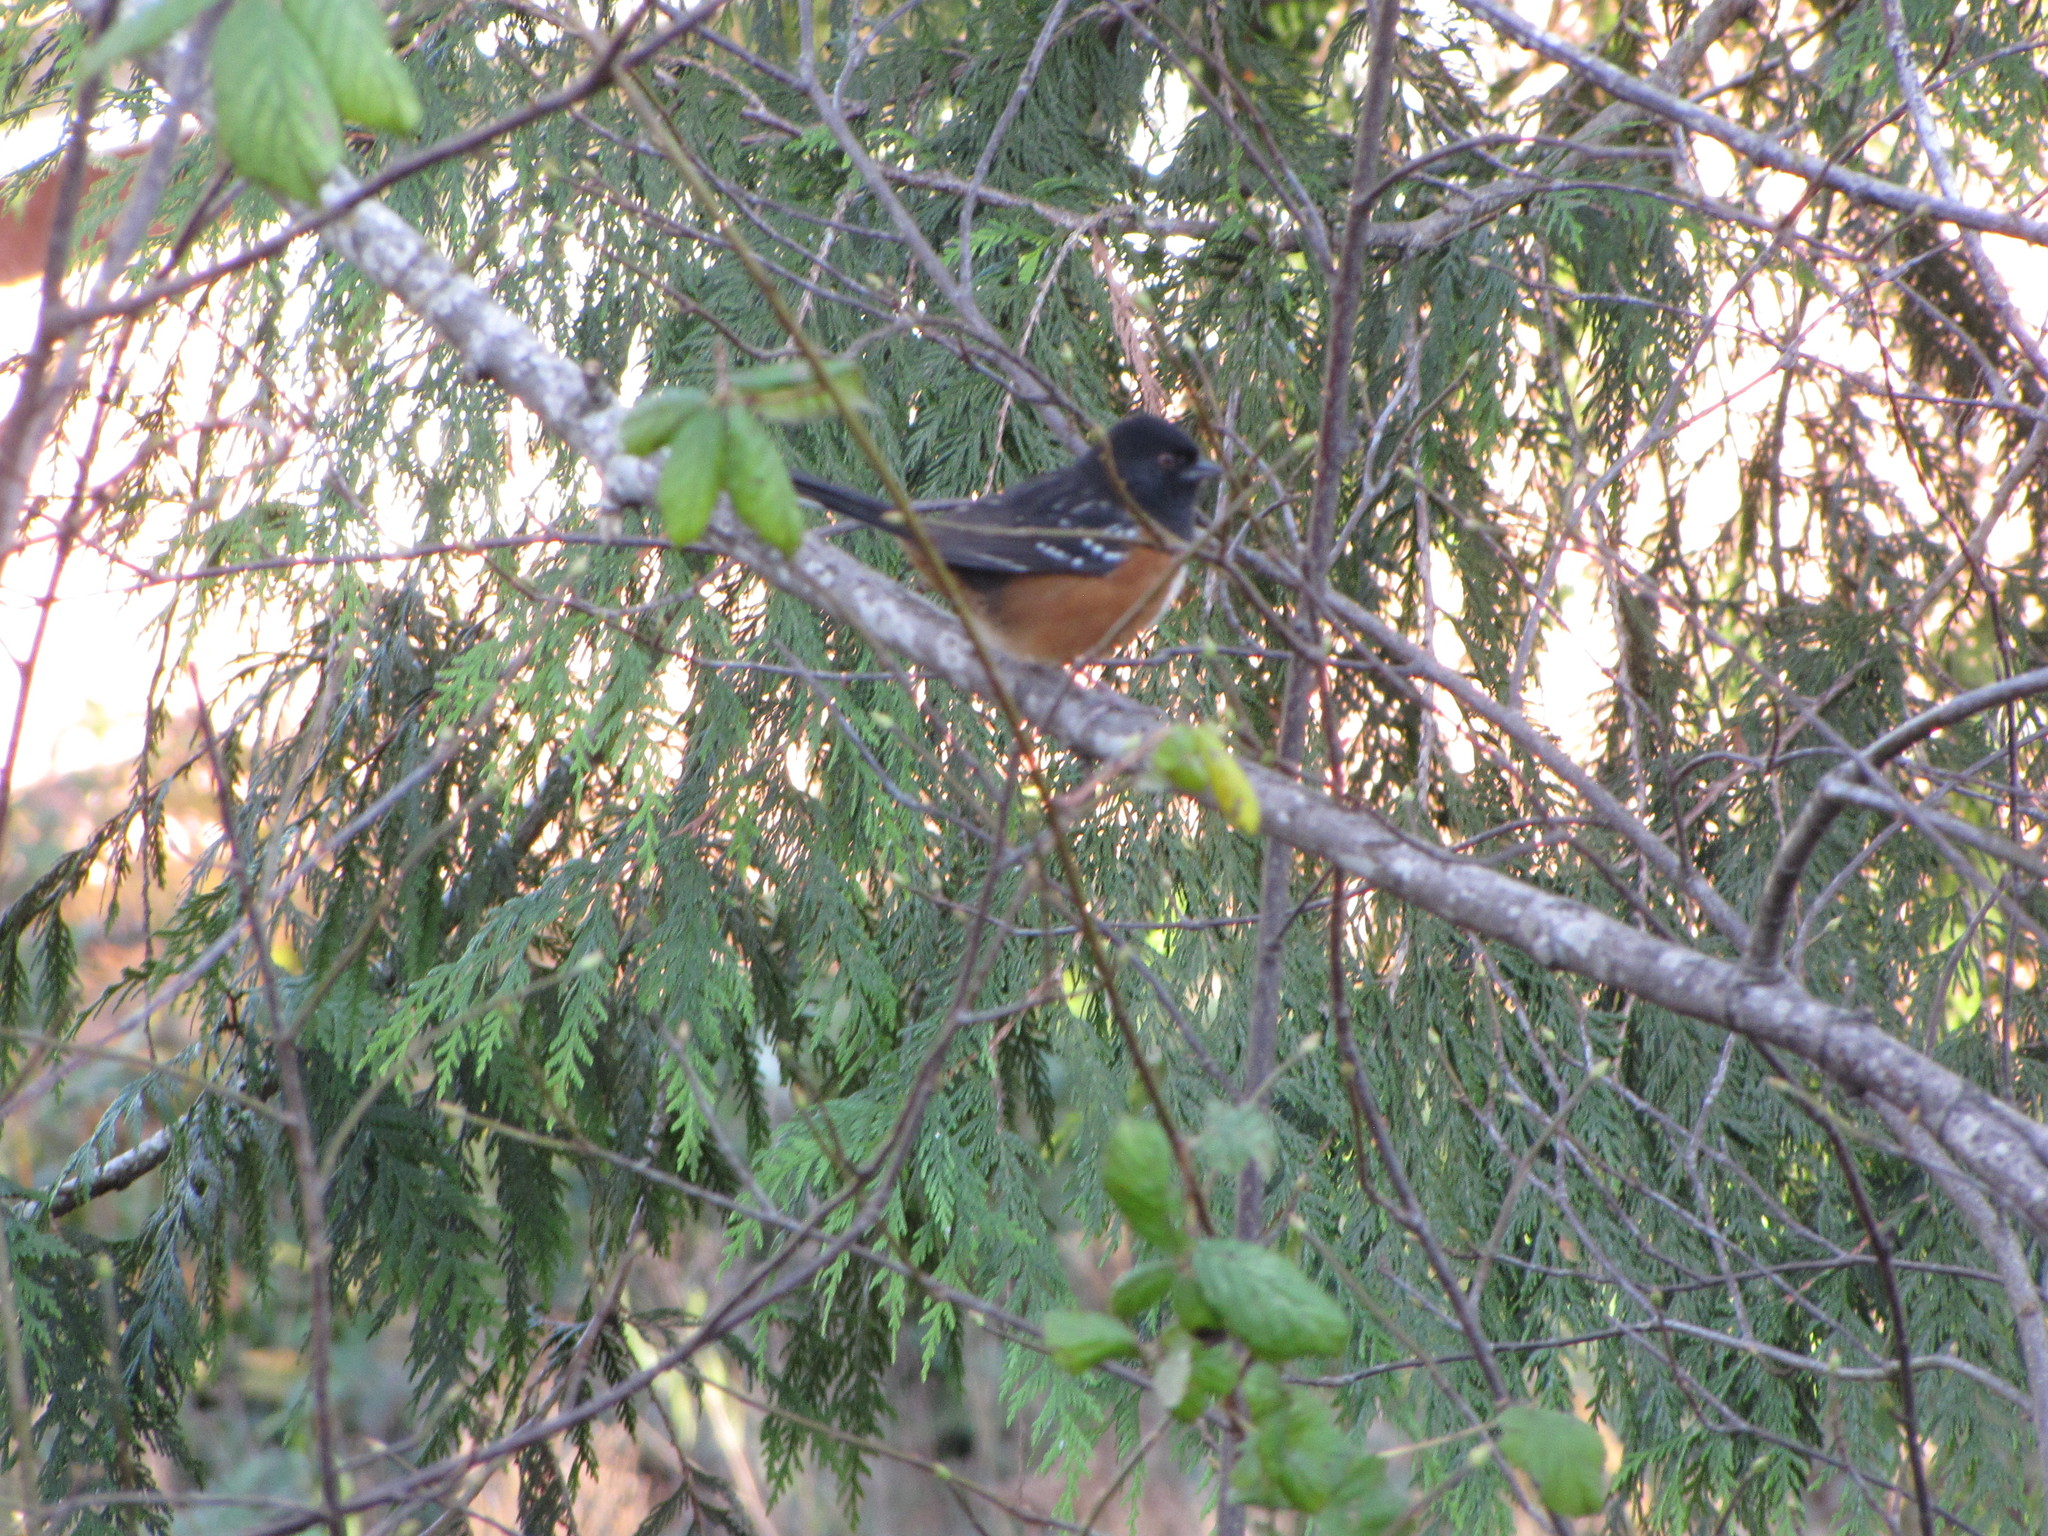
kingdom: Animalia
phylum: Chordata
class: Aves
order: Passeriformes
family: Passerellidae
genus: Pipilo
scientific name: Pipilo maculatus
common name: Spotted towhee
